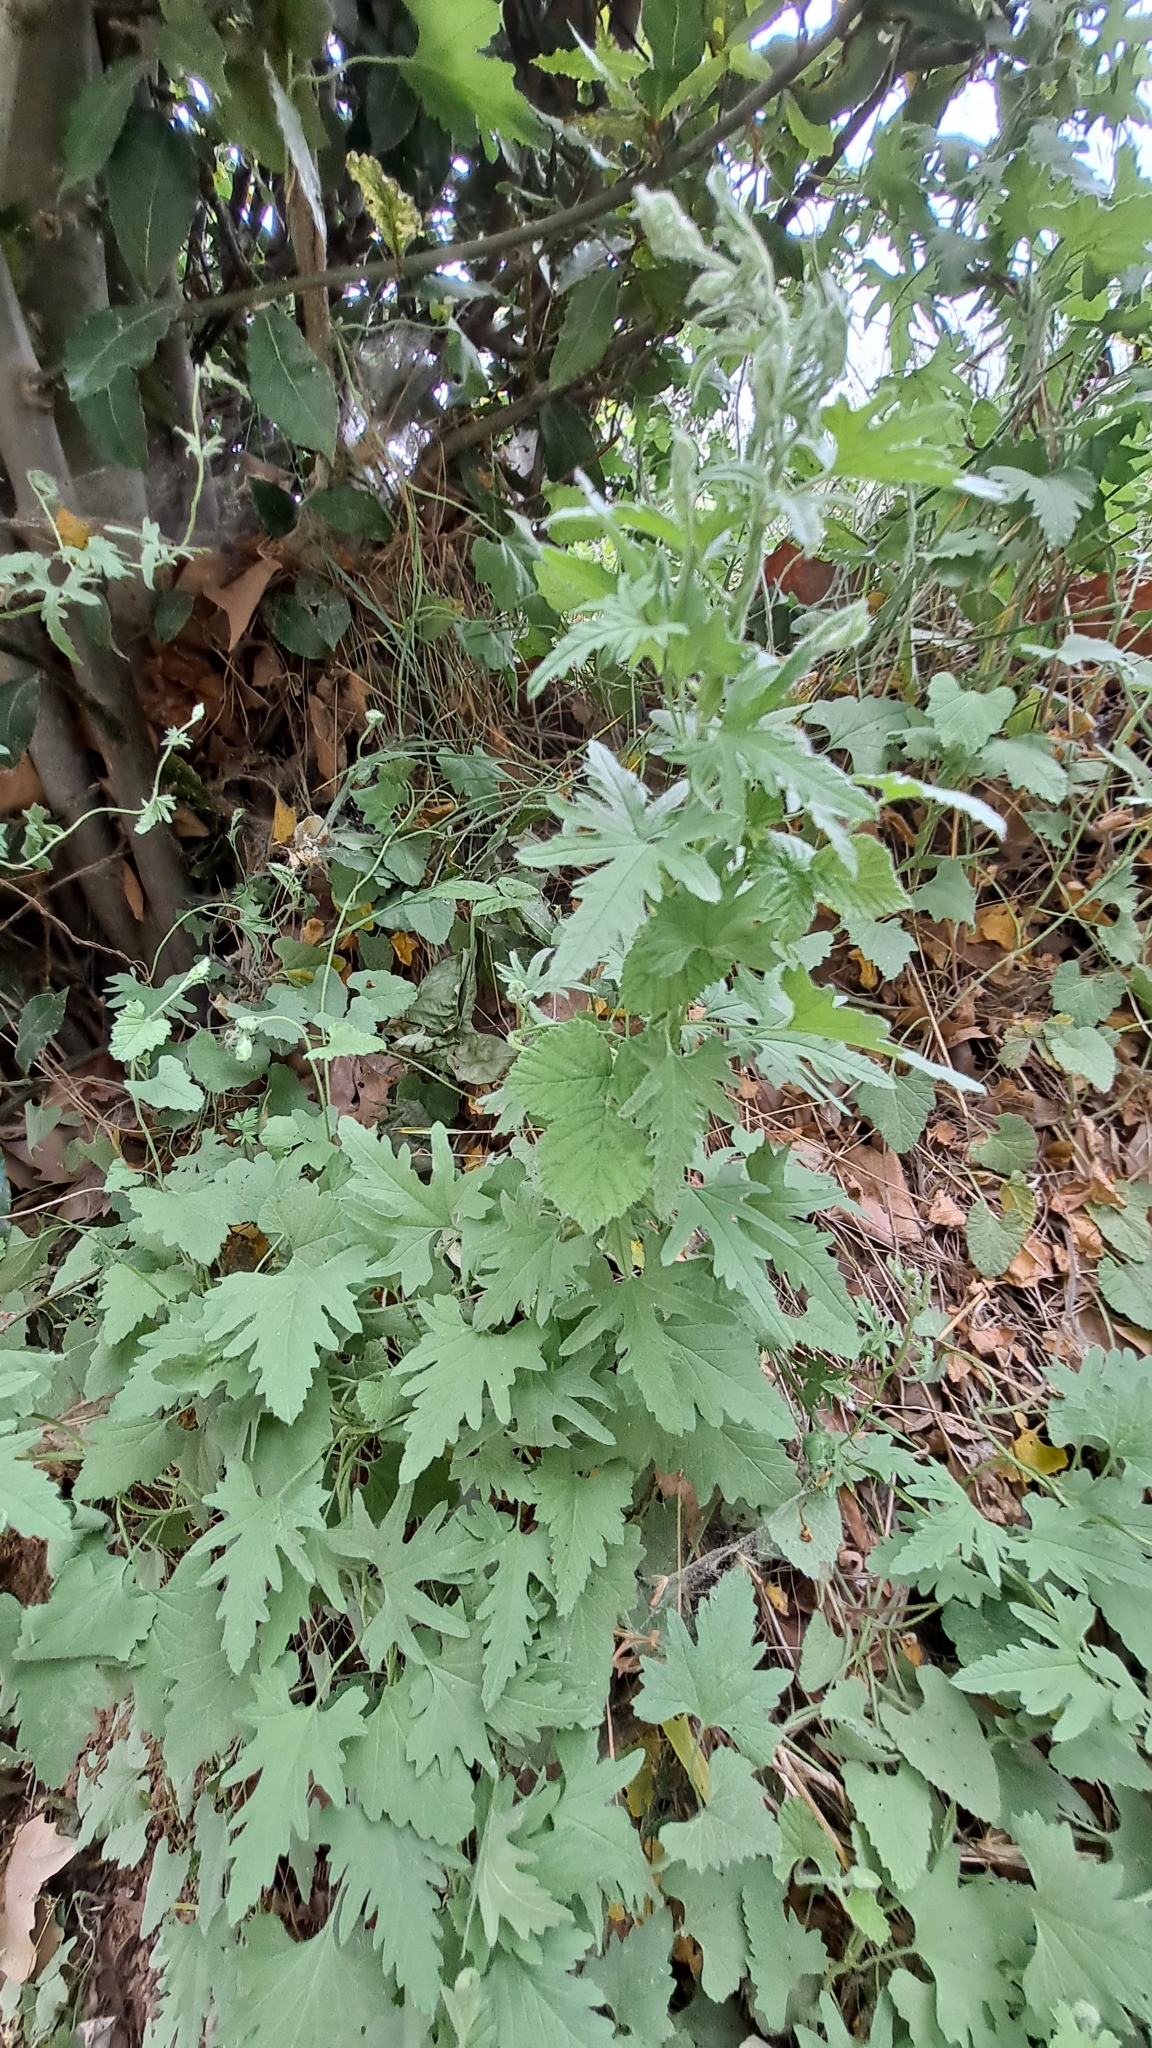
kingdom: Plantae
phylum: Tracheophyta
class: Magnoliopsida
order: Solanales
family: Convolvulaceae
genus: Convolvulus
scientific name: Convolvulus althaeoides
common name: Mallow bindweed
